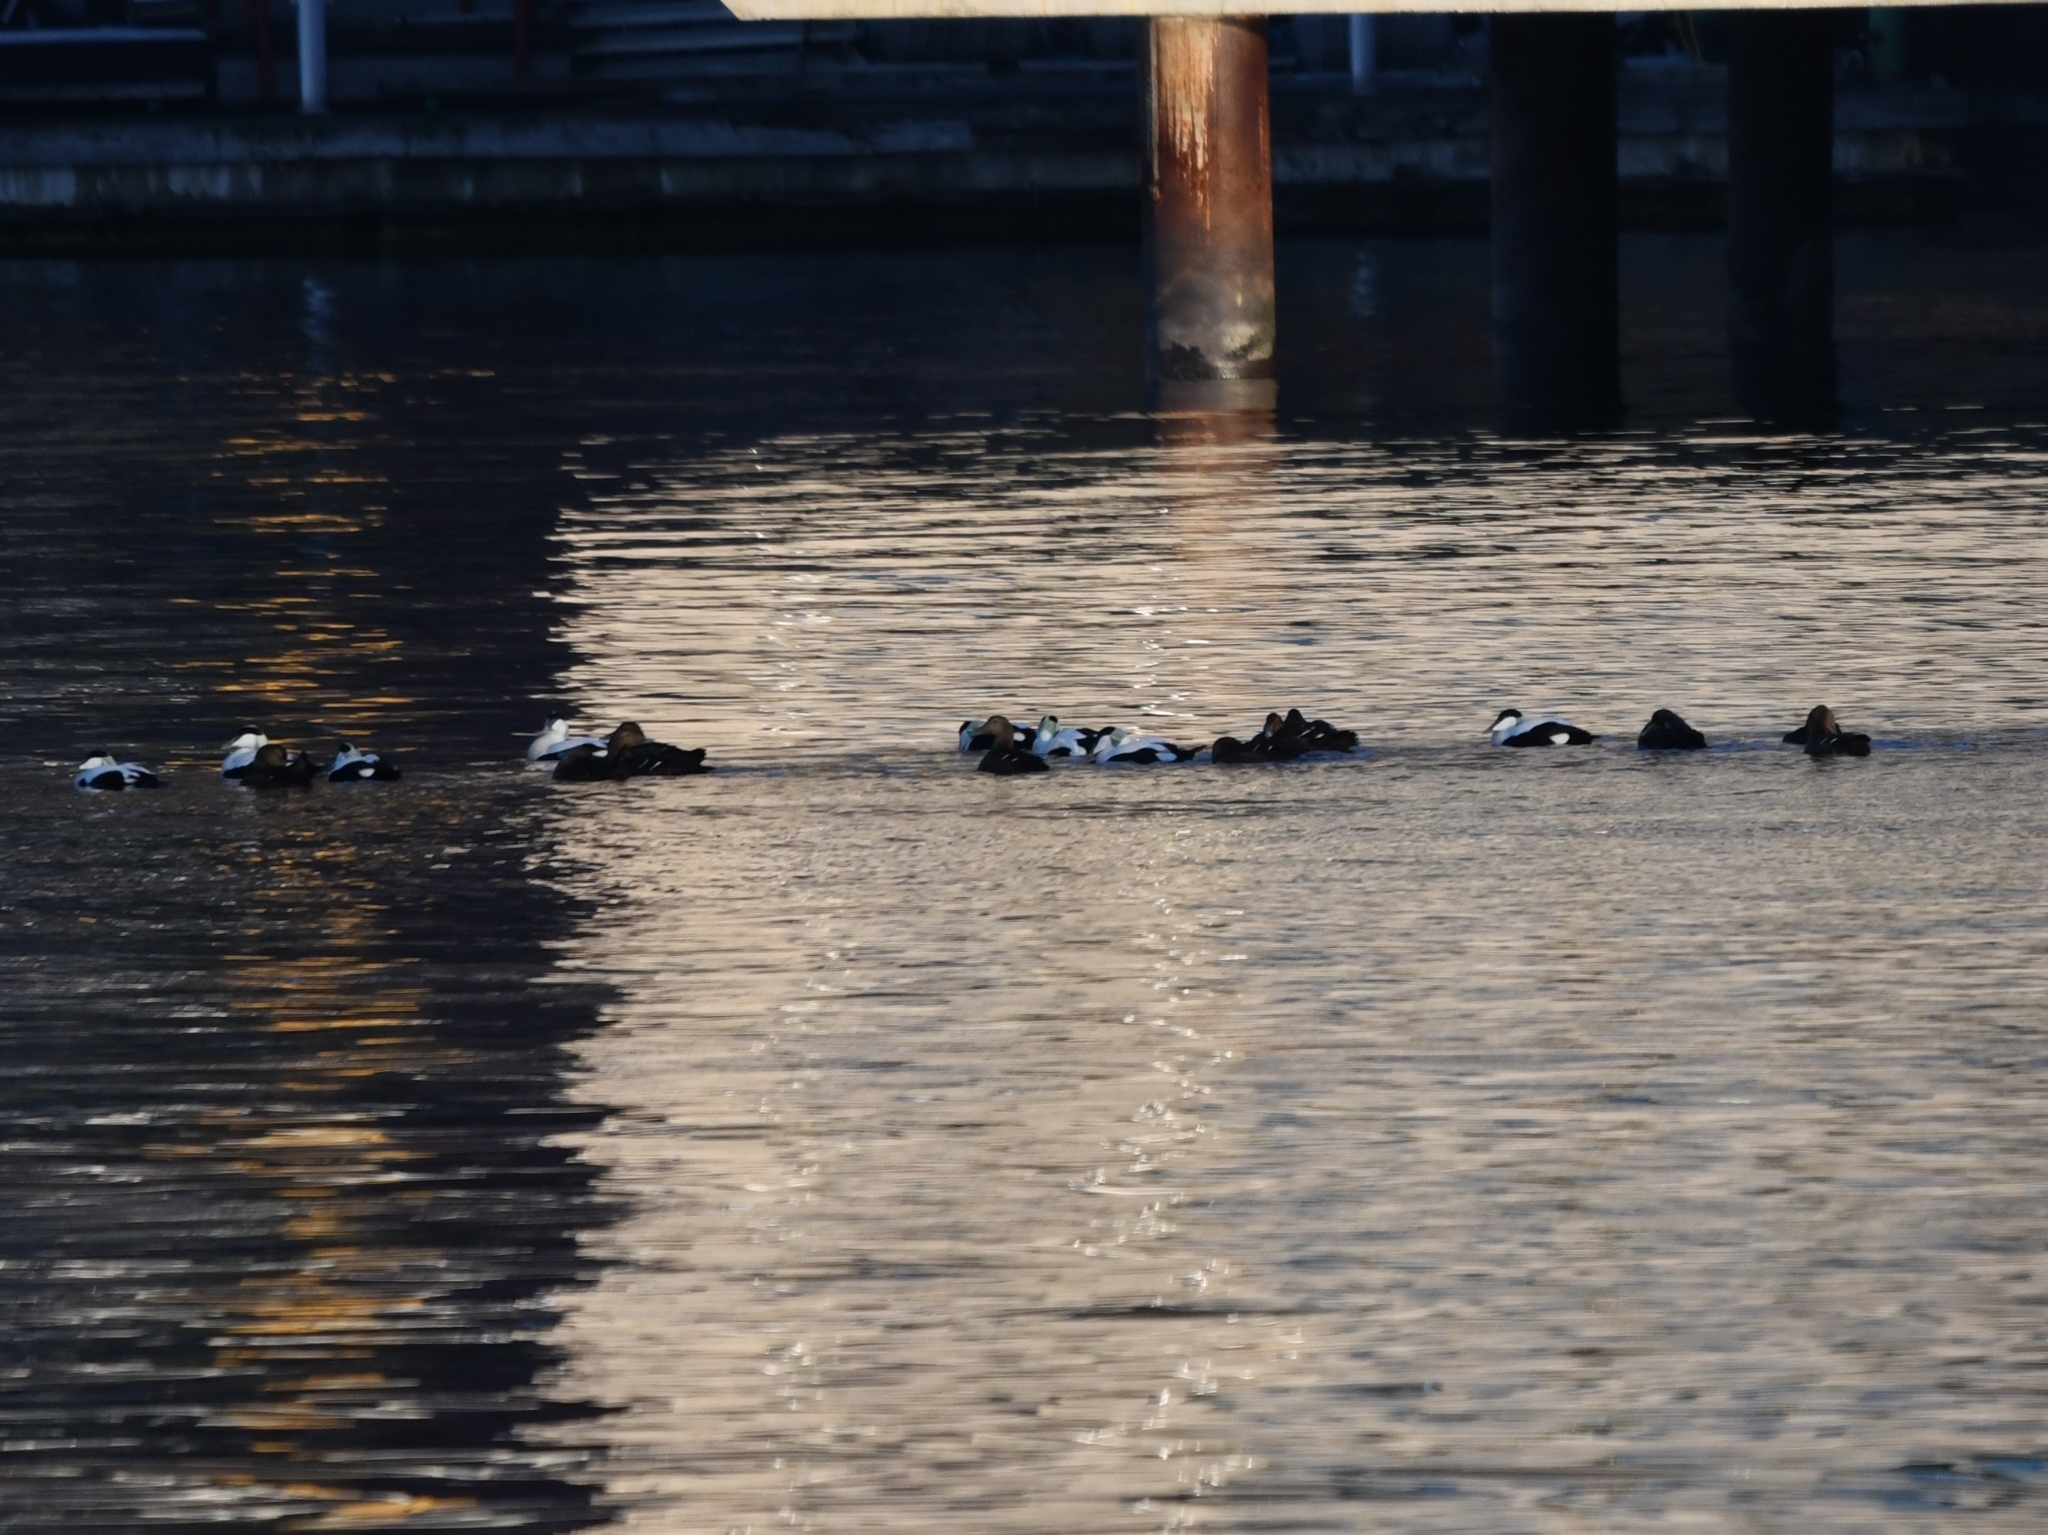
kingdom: Animalia
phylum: Chordata
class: Aves
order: Anseriformes
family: Anatidae
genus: Somateria
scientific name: Somateria mollissima
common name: Common eider
